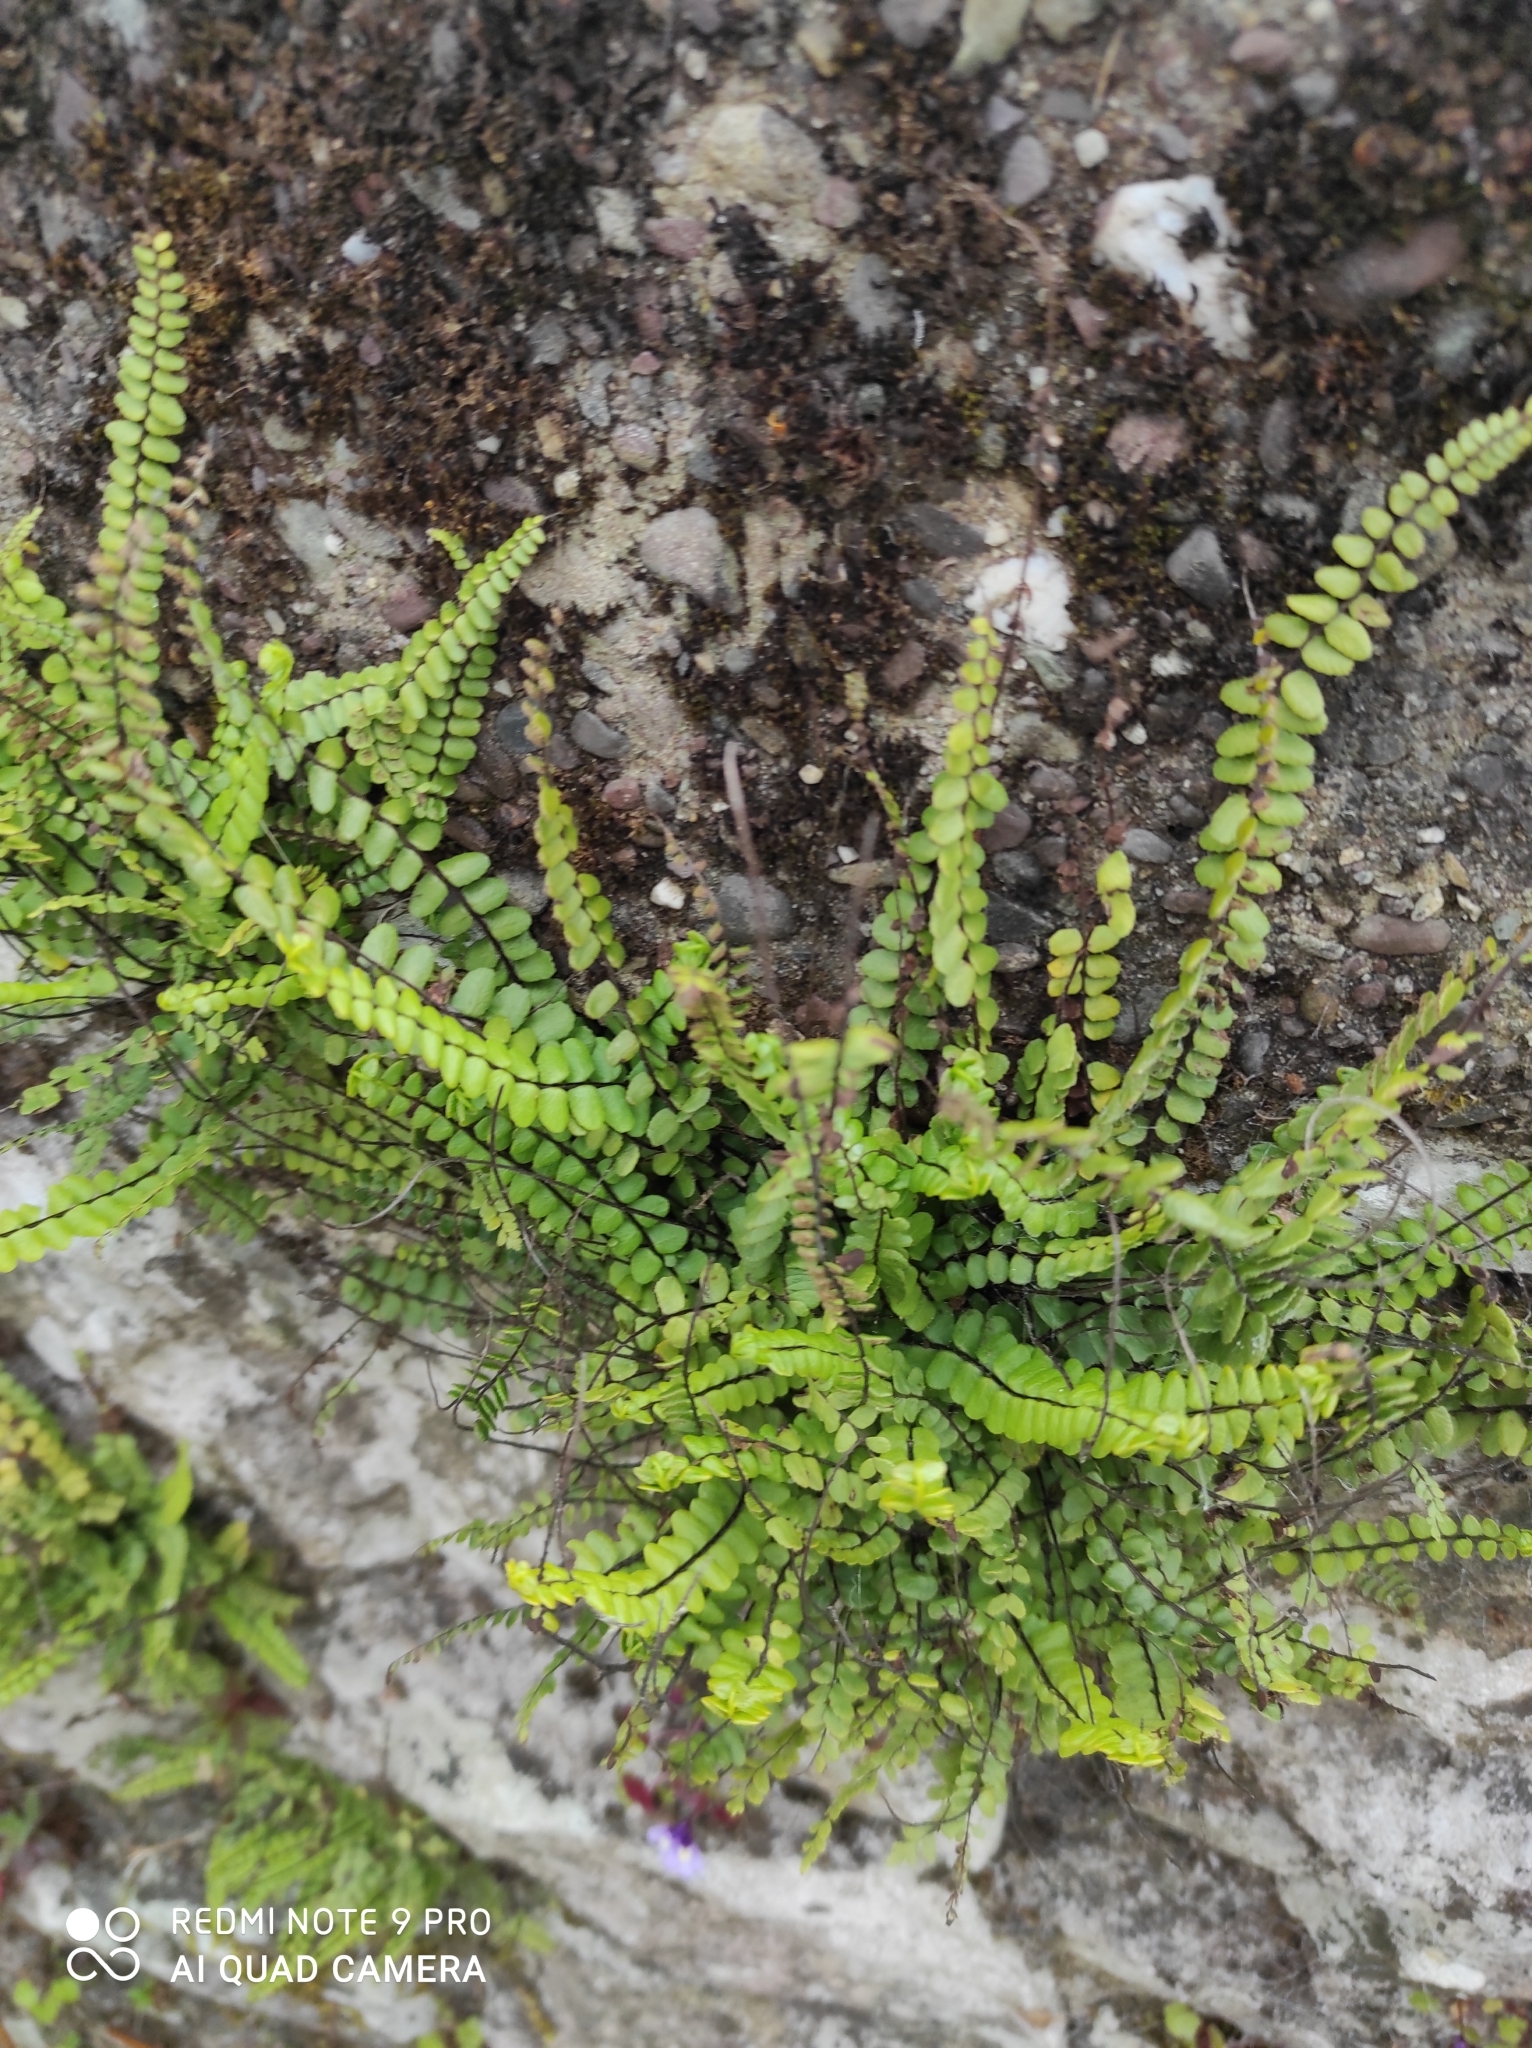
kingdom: Plantae
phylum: Tracheophyta
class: Polypodiopsida
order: Polypodiales
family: Aspleniaceae
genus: Asplenium
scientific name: Asplenium trichomanes
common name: Maidenhair spleenwort
